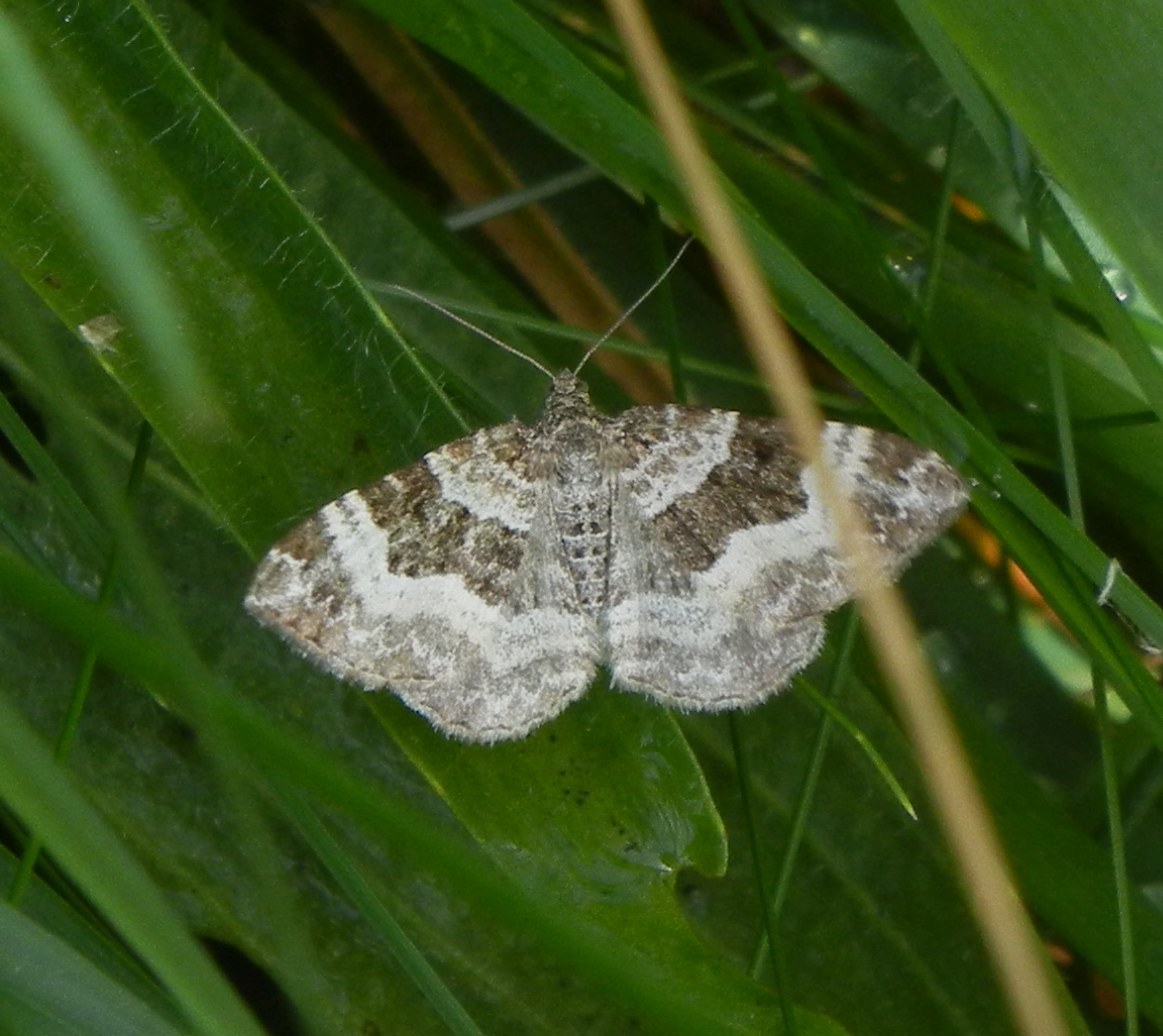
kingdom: Animalia
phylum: Arthropoda
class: Insecta
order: Lepidoptera
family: Geometridae
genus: Epirrhoe
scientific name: Epirrhoe alternata
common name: Common carpet
